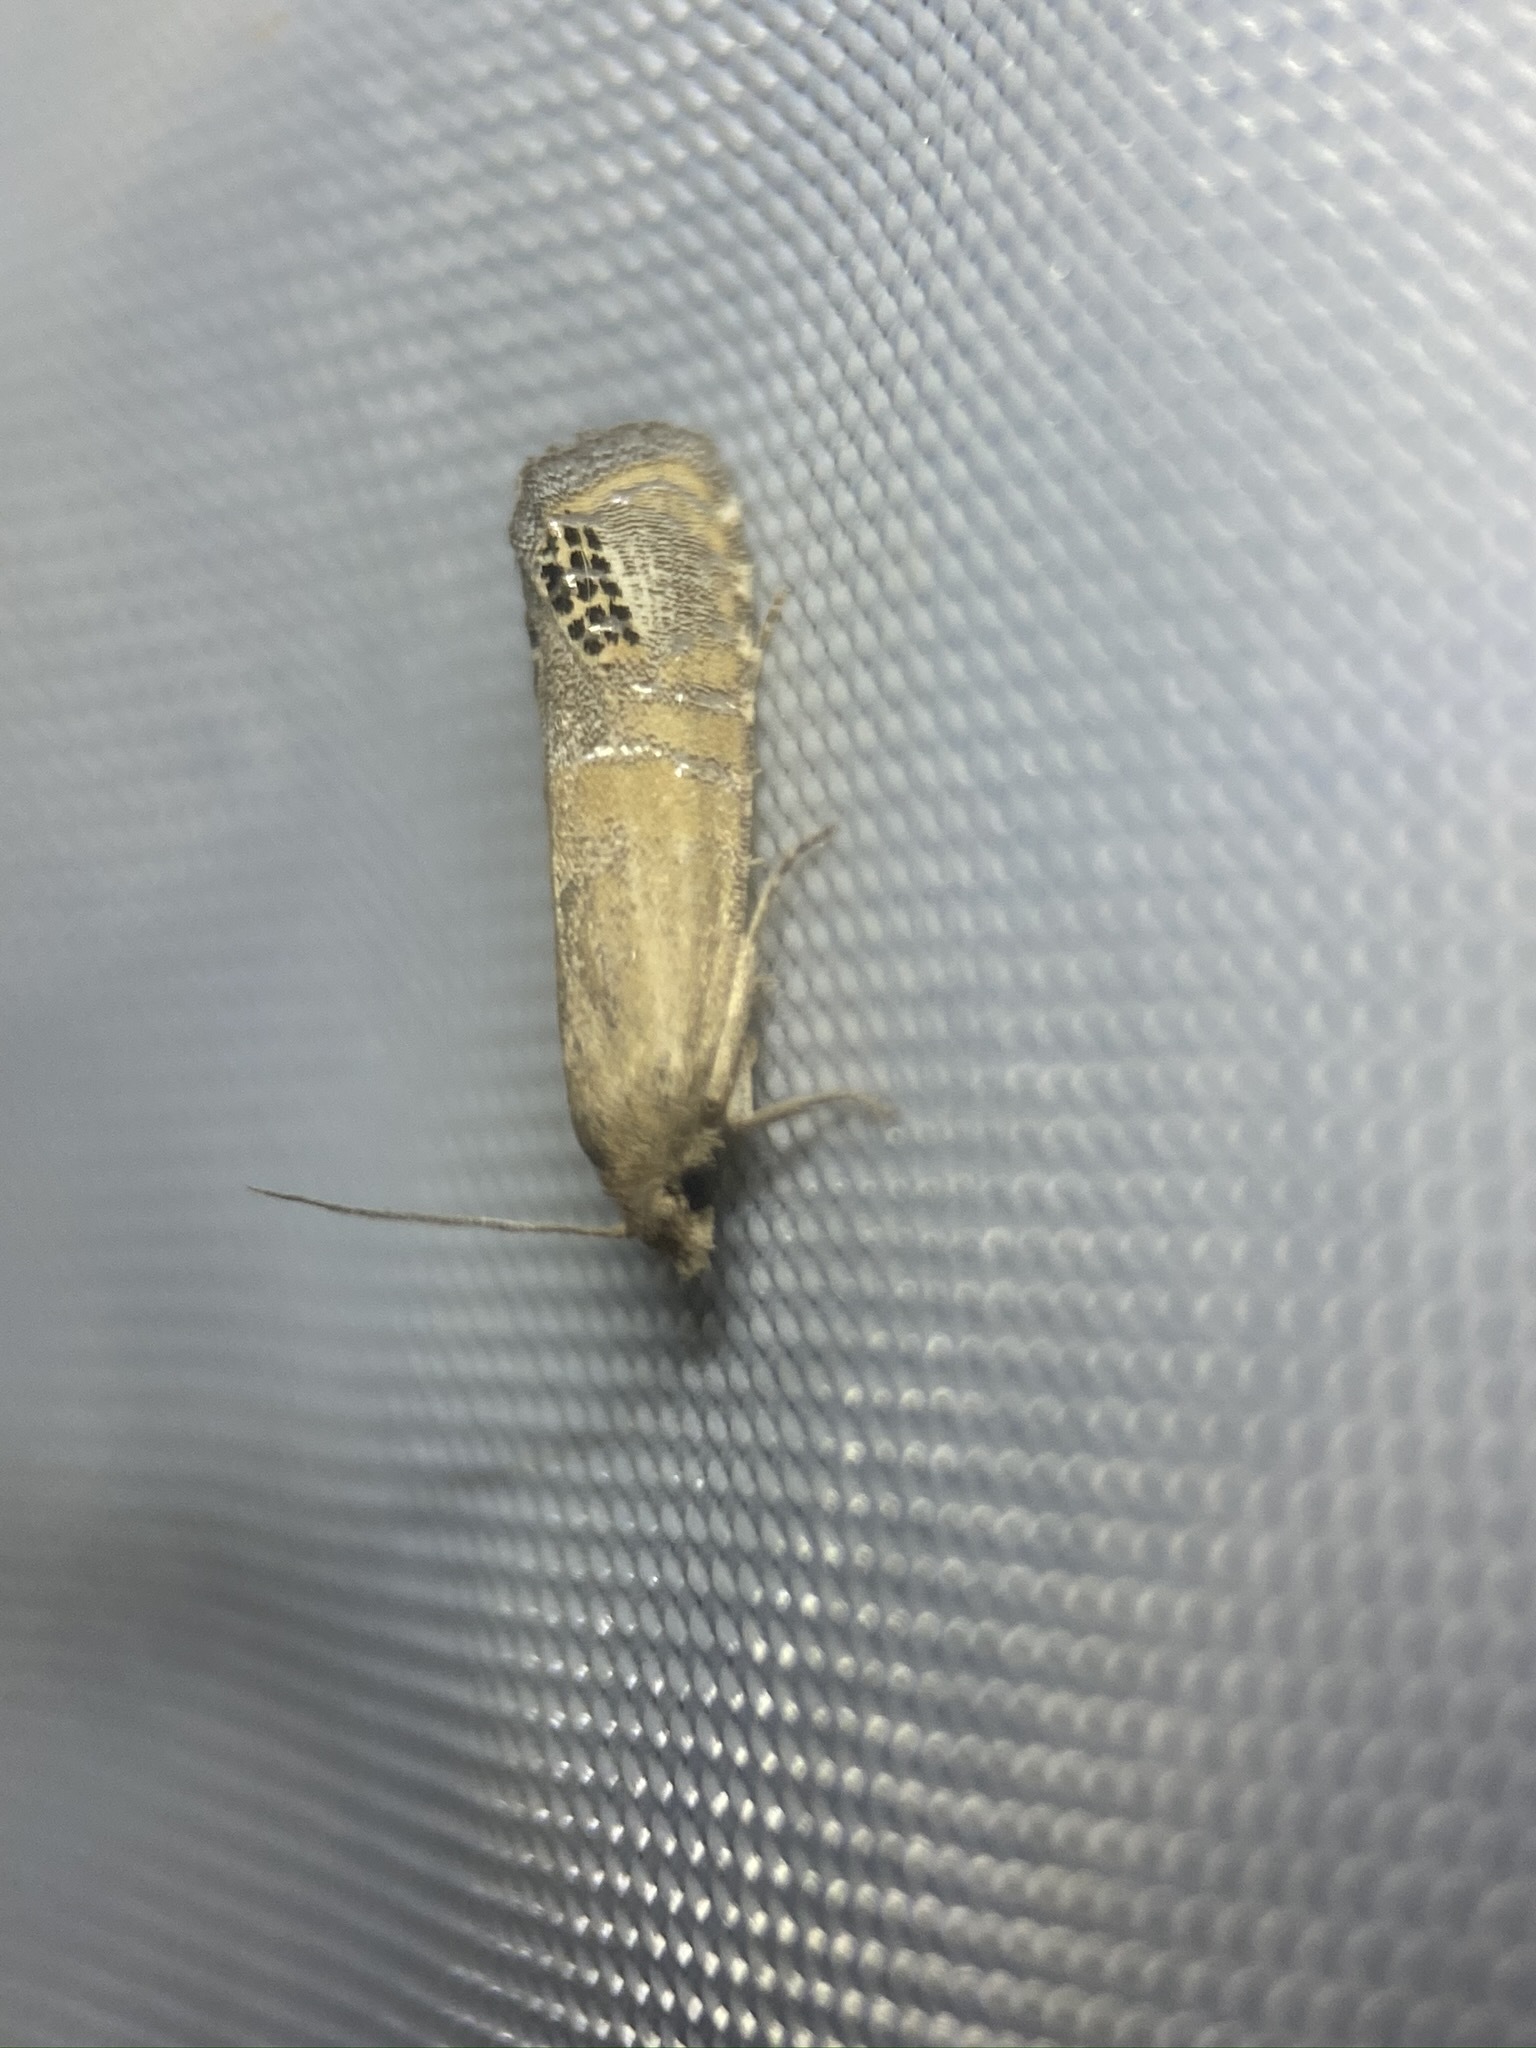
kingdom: Animalia
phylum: Arthropoda
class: Insecta
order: Lepidoptera
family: Tortricidae
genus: Pelochrista
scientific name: Pelochrista scintillana
